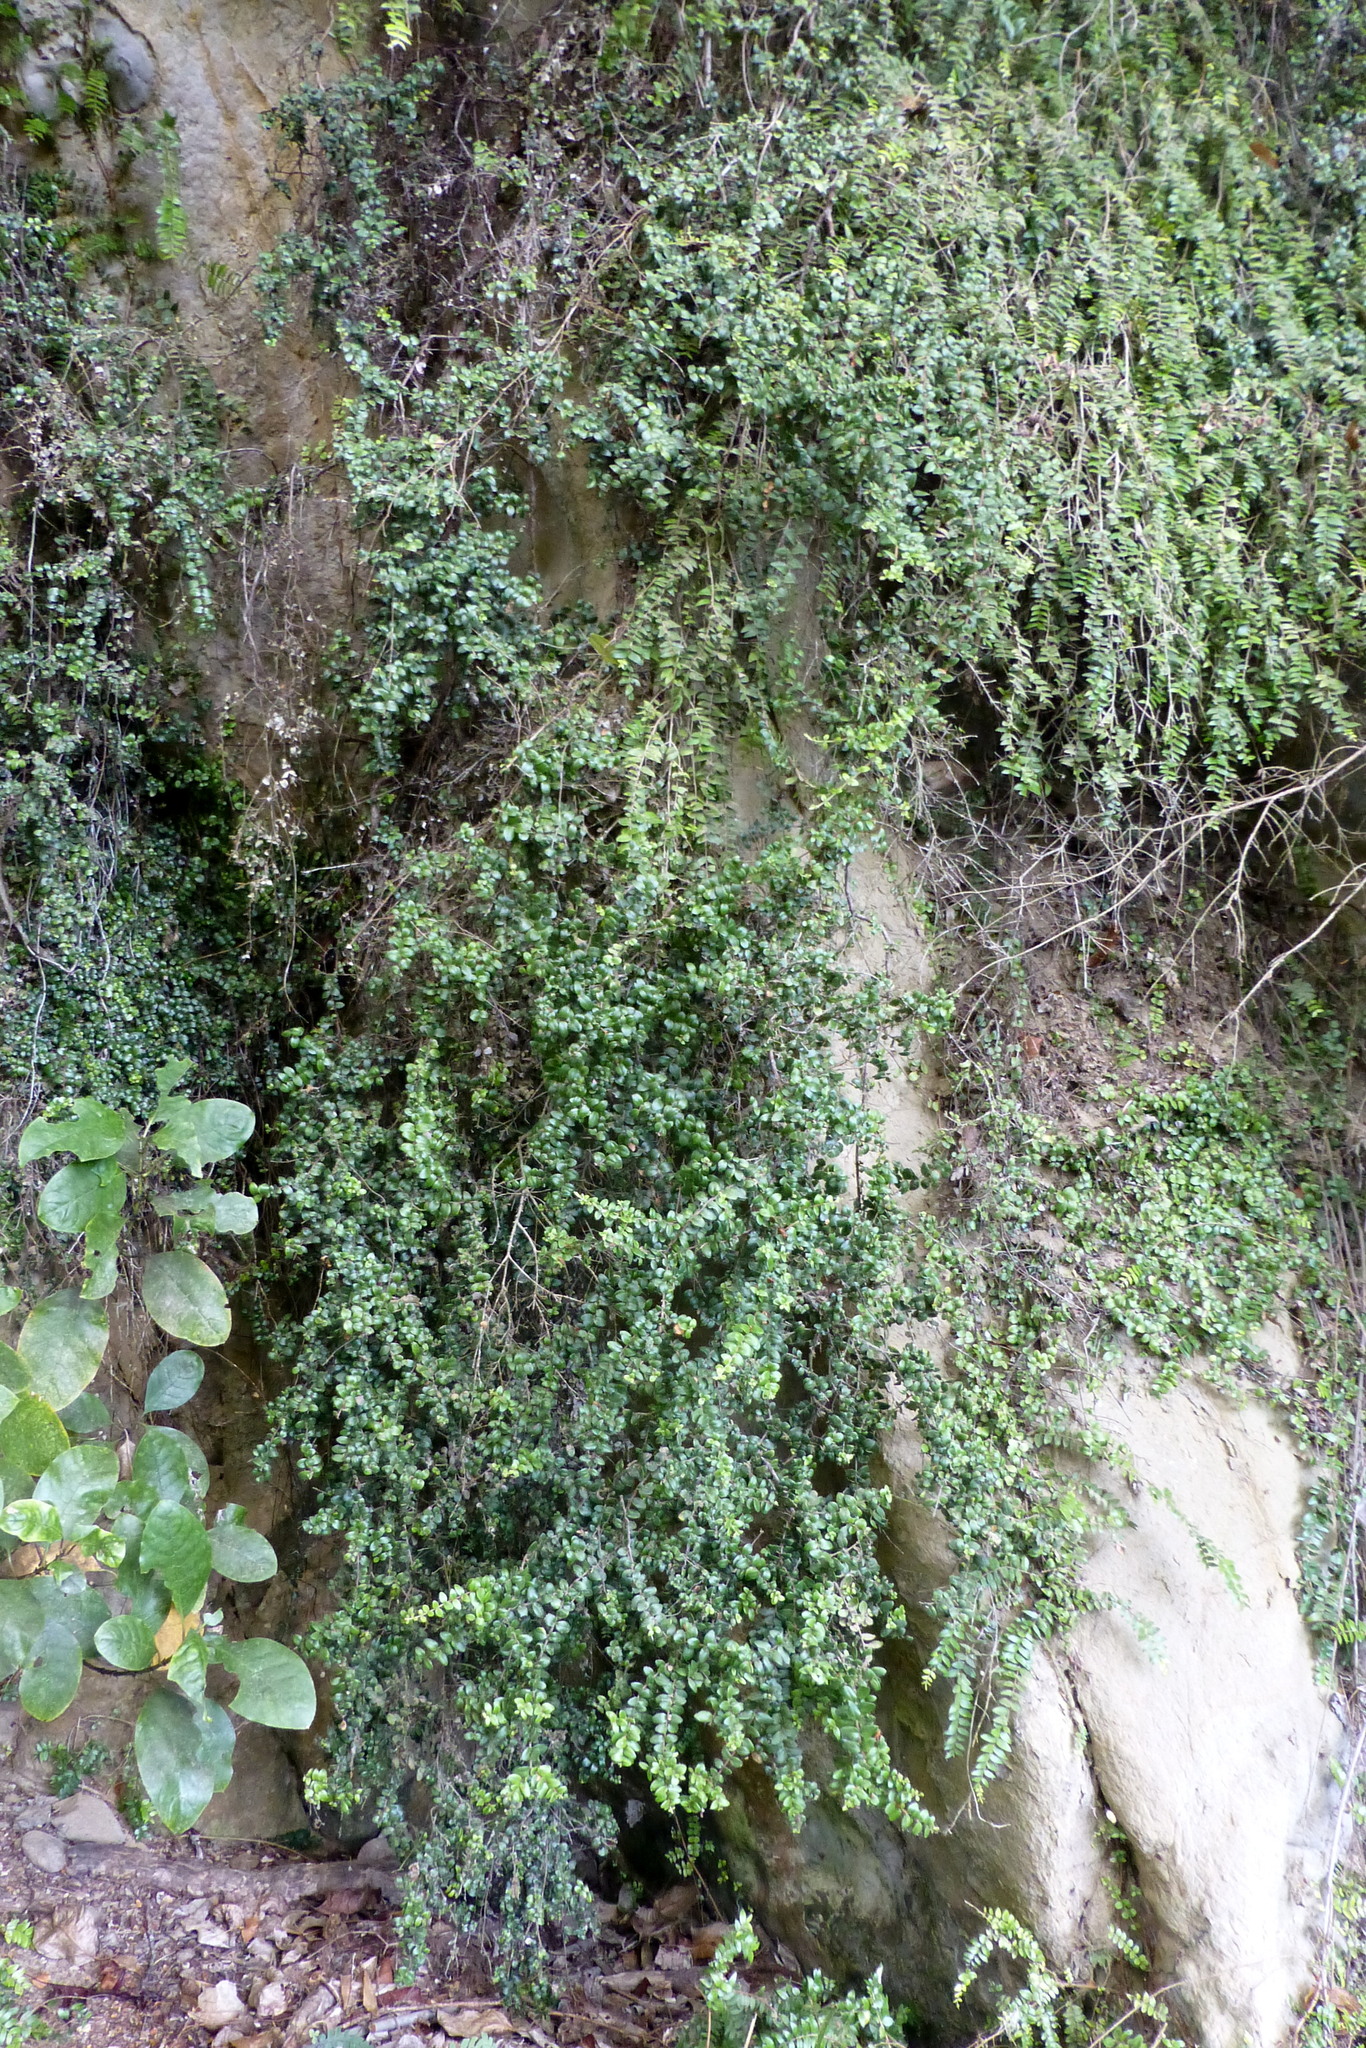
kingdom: Plantae
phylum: Tracheophyta
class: Magnoliopsida
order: Myrtales
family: Myrtaceae
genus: Metrosideros
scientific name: Metrosideros perforata
